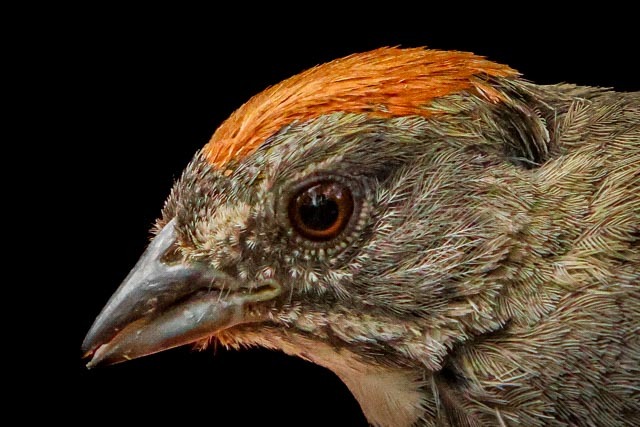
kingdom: Animalia
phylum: Chordata
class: Aves
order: Passeriformes
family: Passerellidae
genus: Pipilo
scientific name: Pipilo chlorurus
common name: Green-tailed towhee
